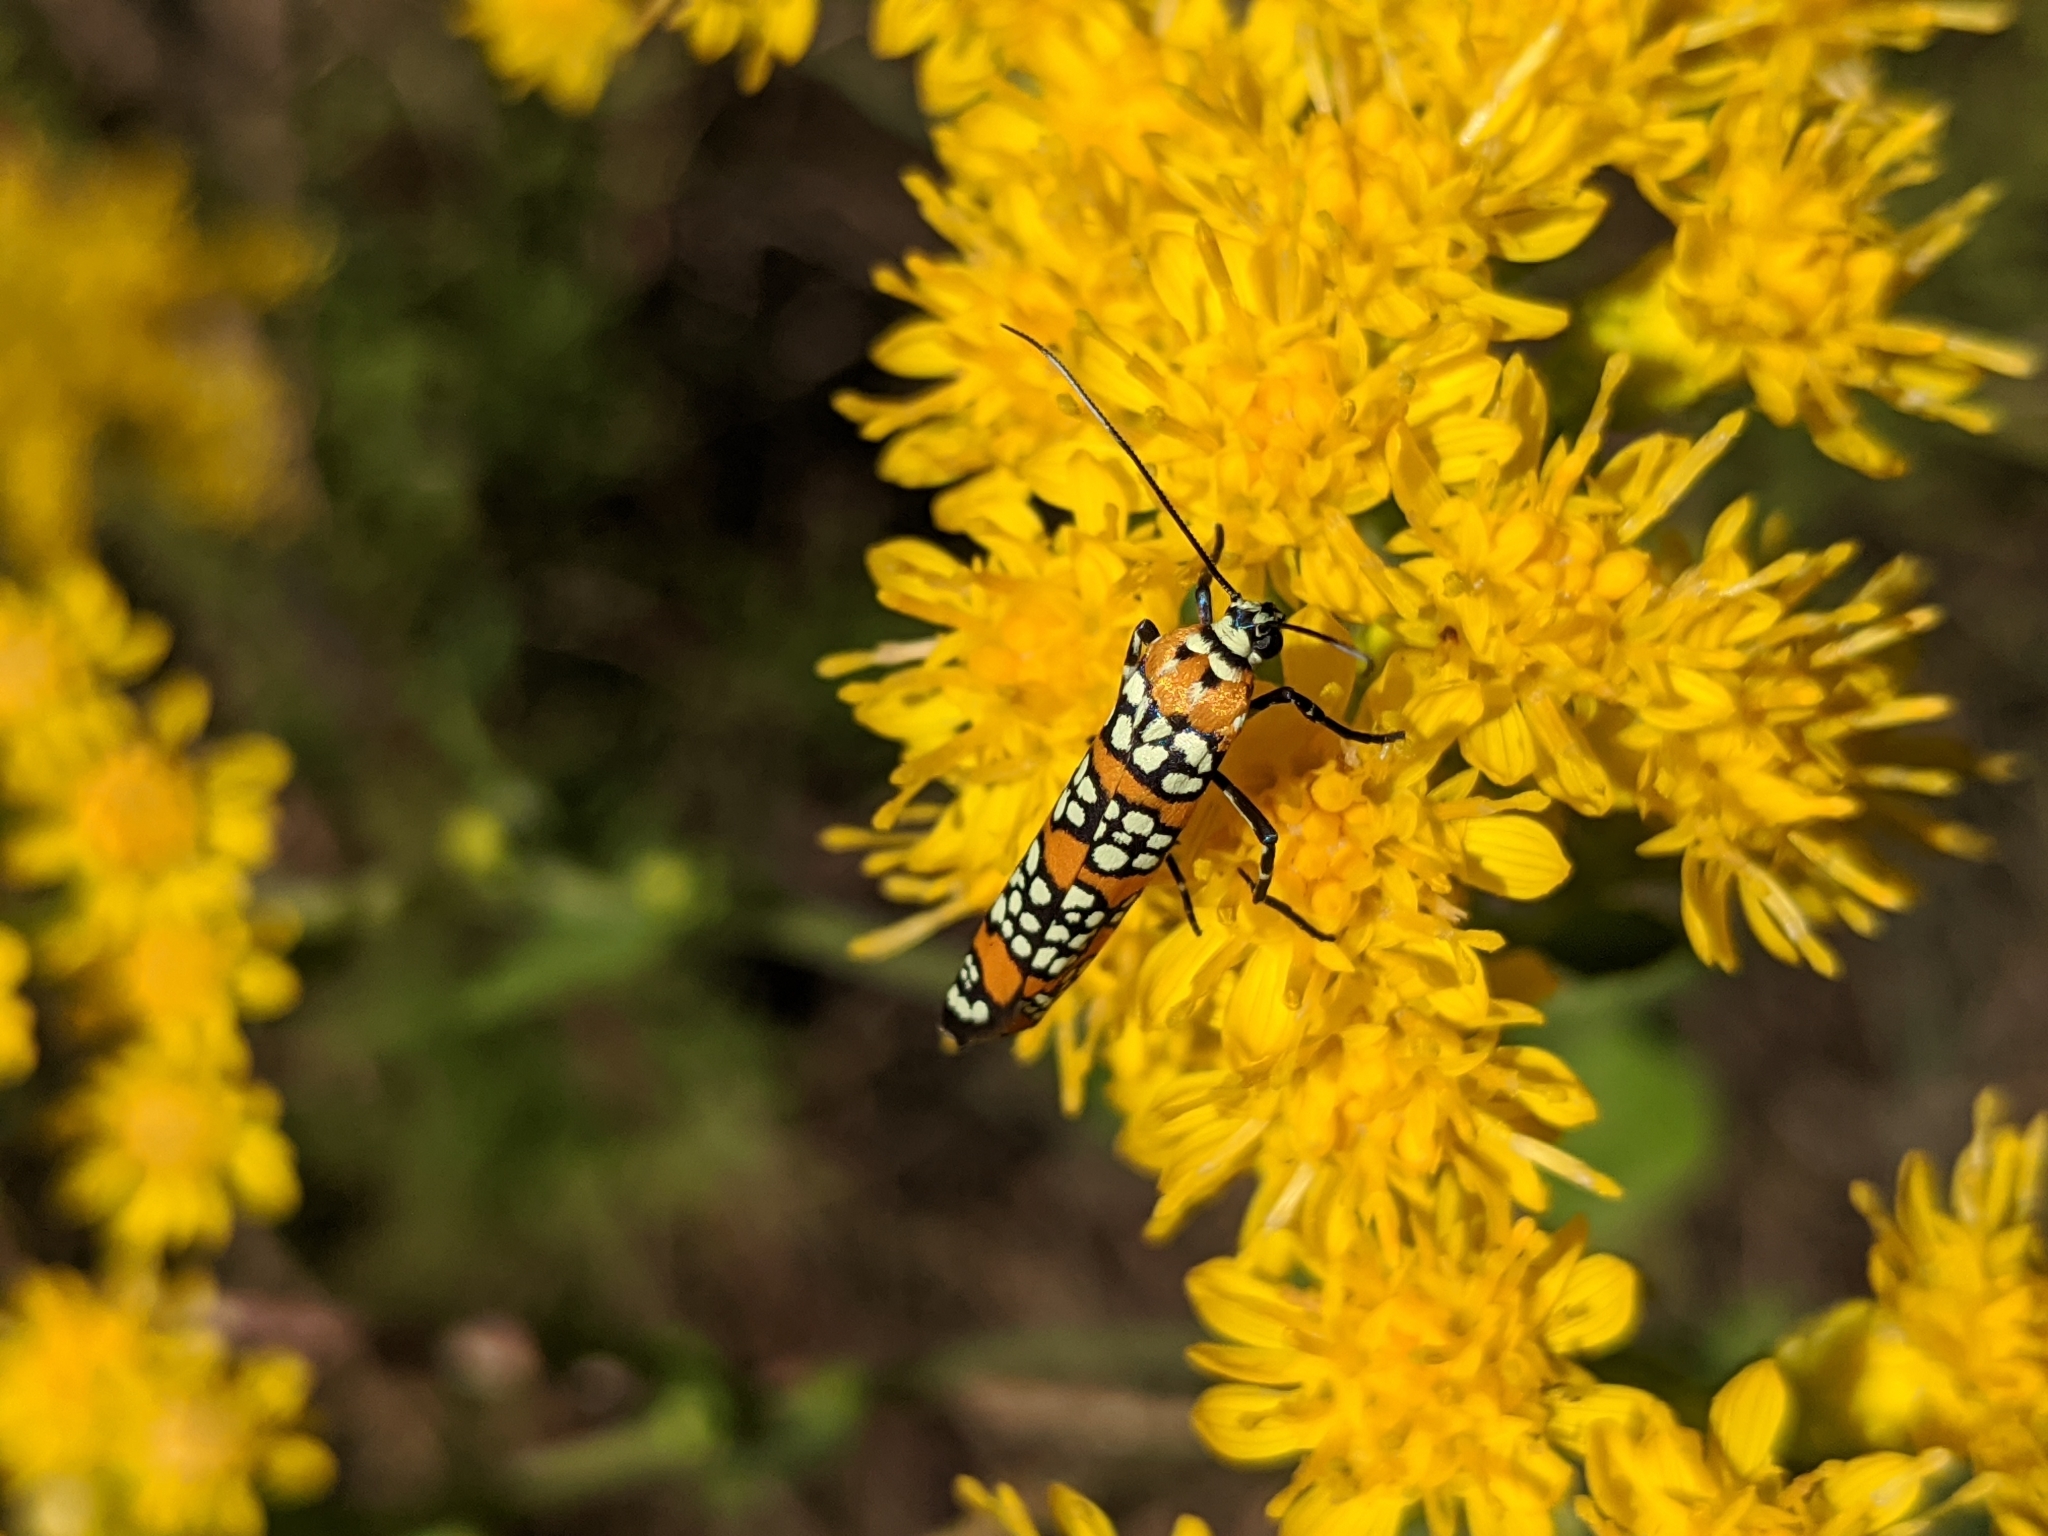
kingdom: Animalia
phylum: Arthropoda
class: Insecta
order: Lepidoptera
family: Attevidae
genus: Atteva
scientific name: Atteva punctella
